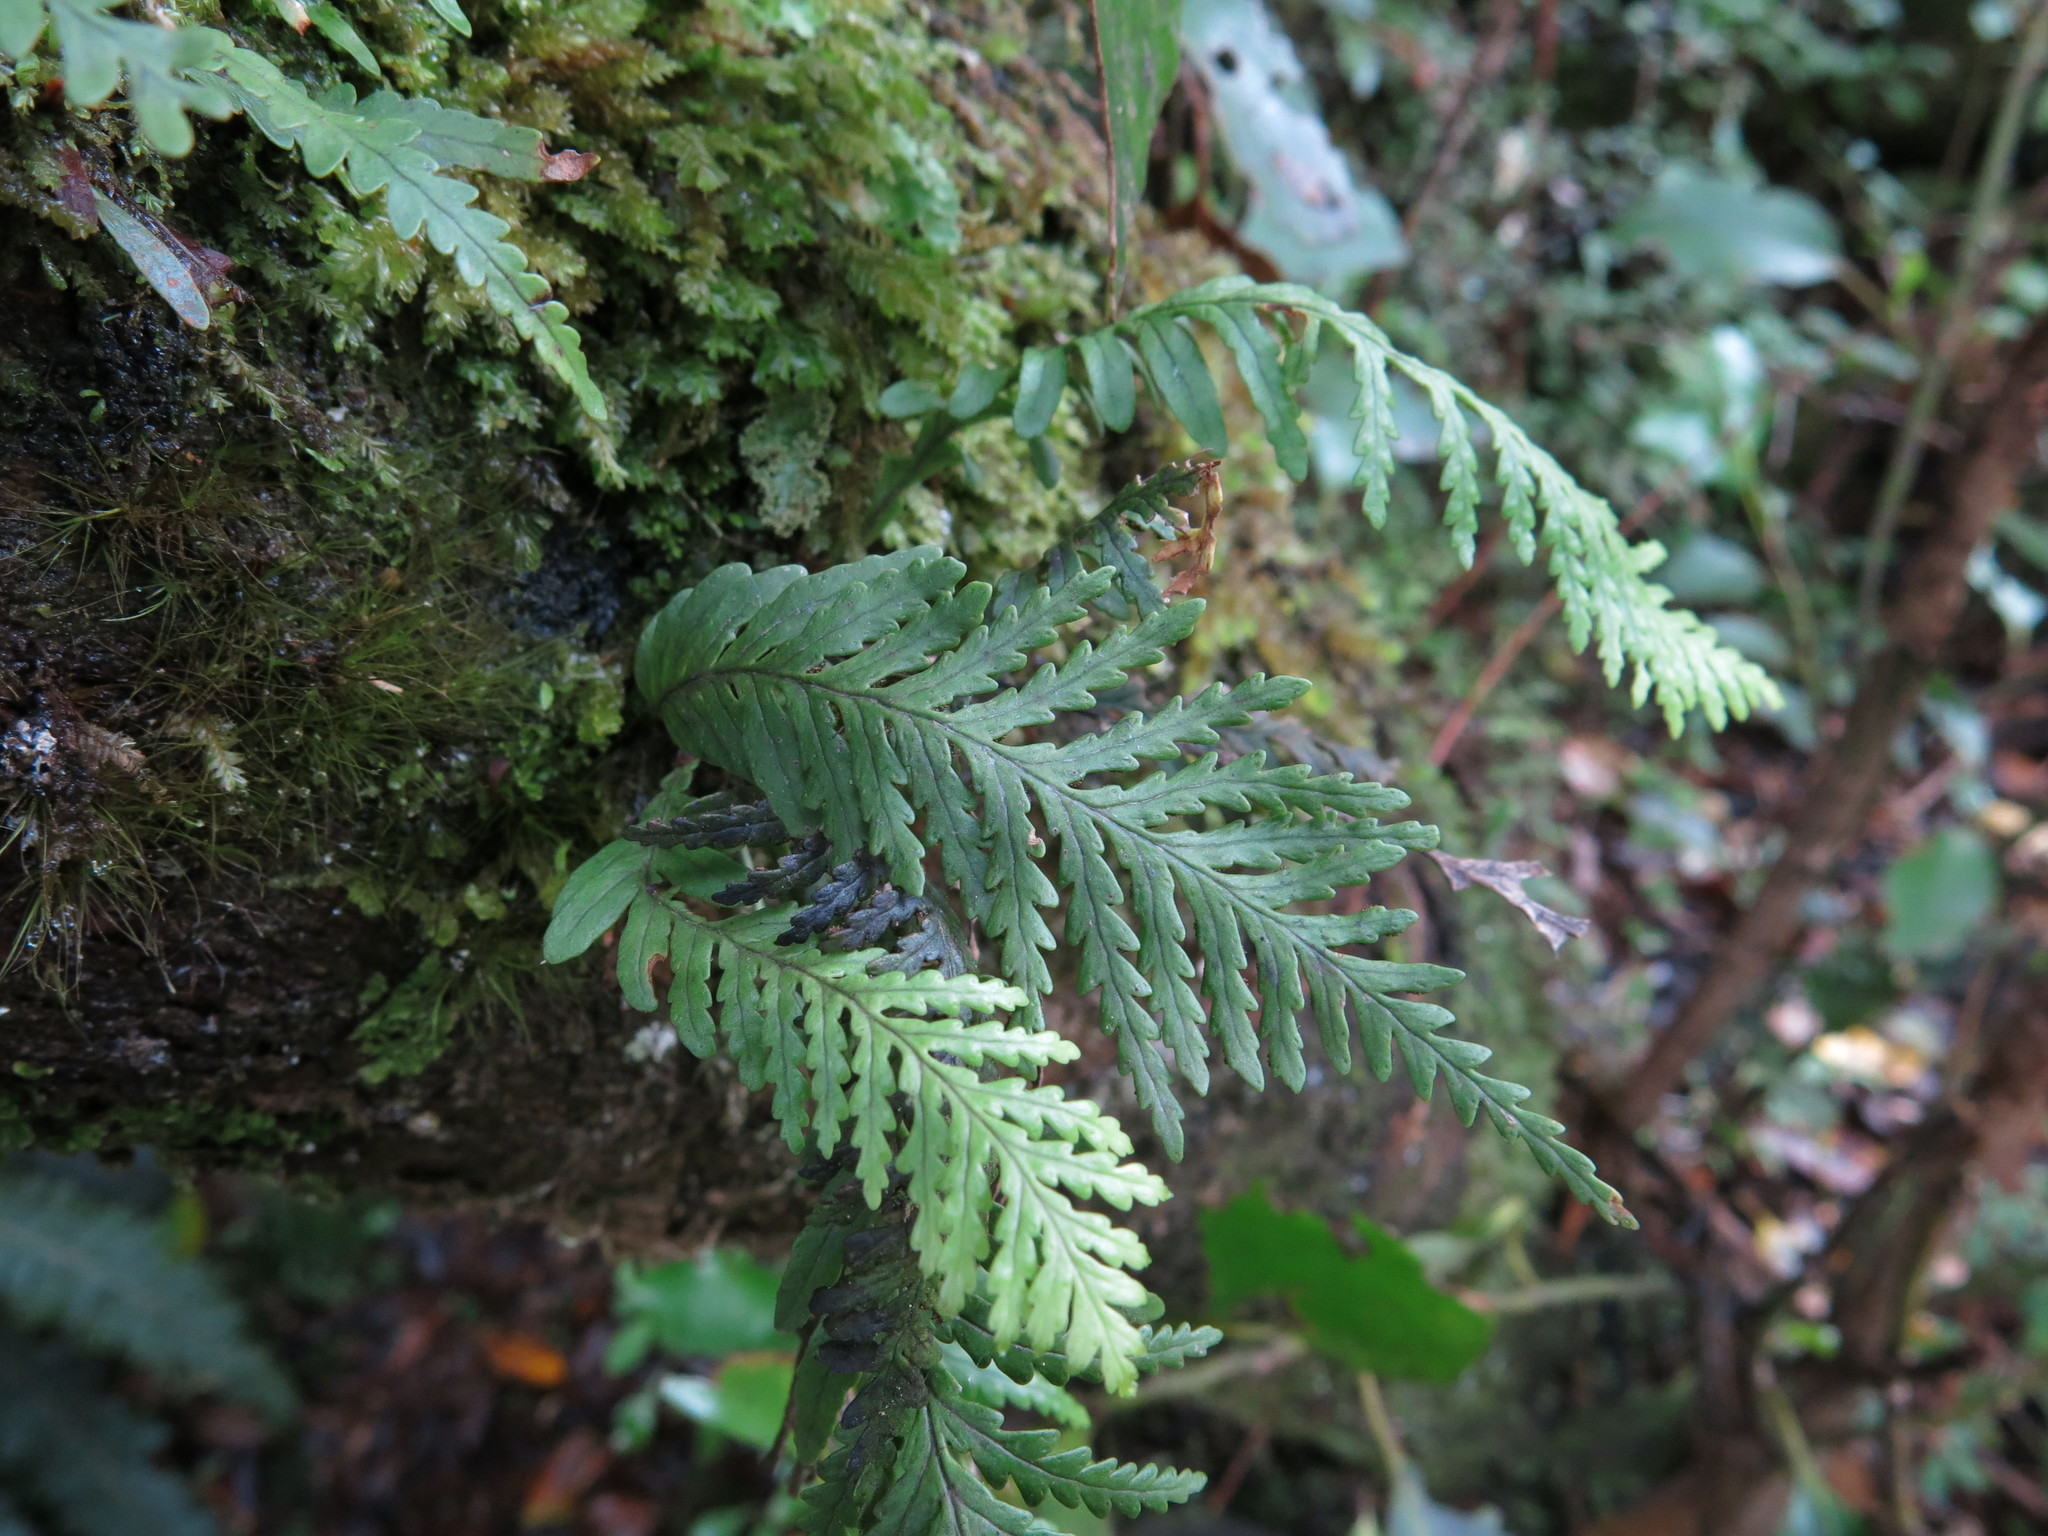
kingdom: Plantae
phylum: Tracheophyta
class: Polypodiopsida
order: Polypodiales
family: Polypodiaceae
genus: Notogrammitis
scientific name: Notogrammitis heterophylla
